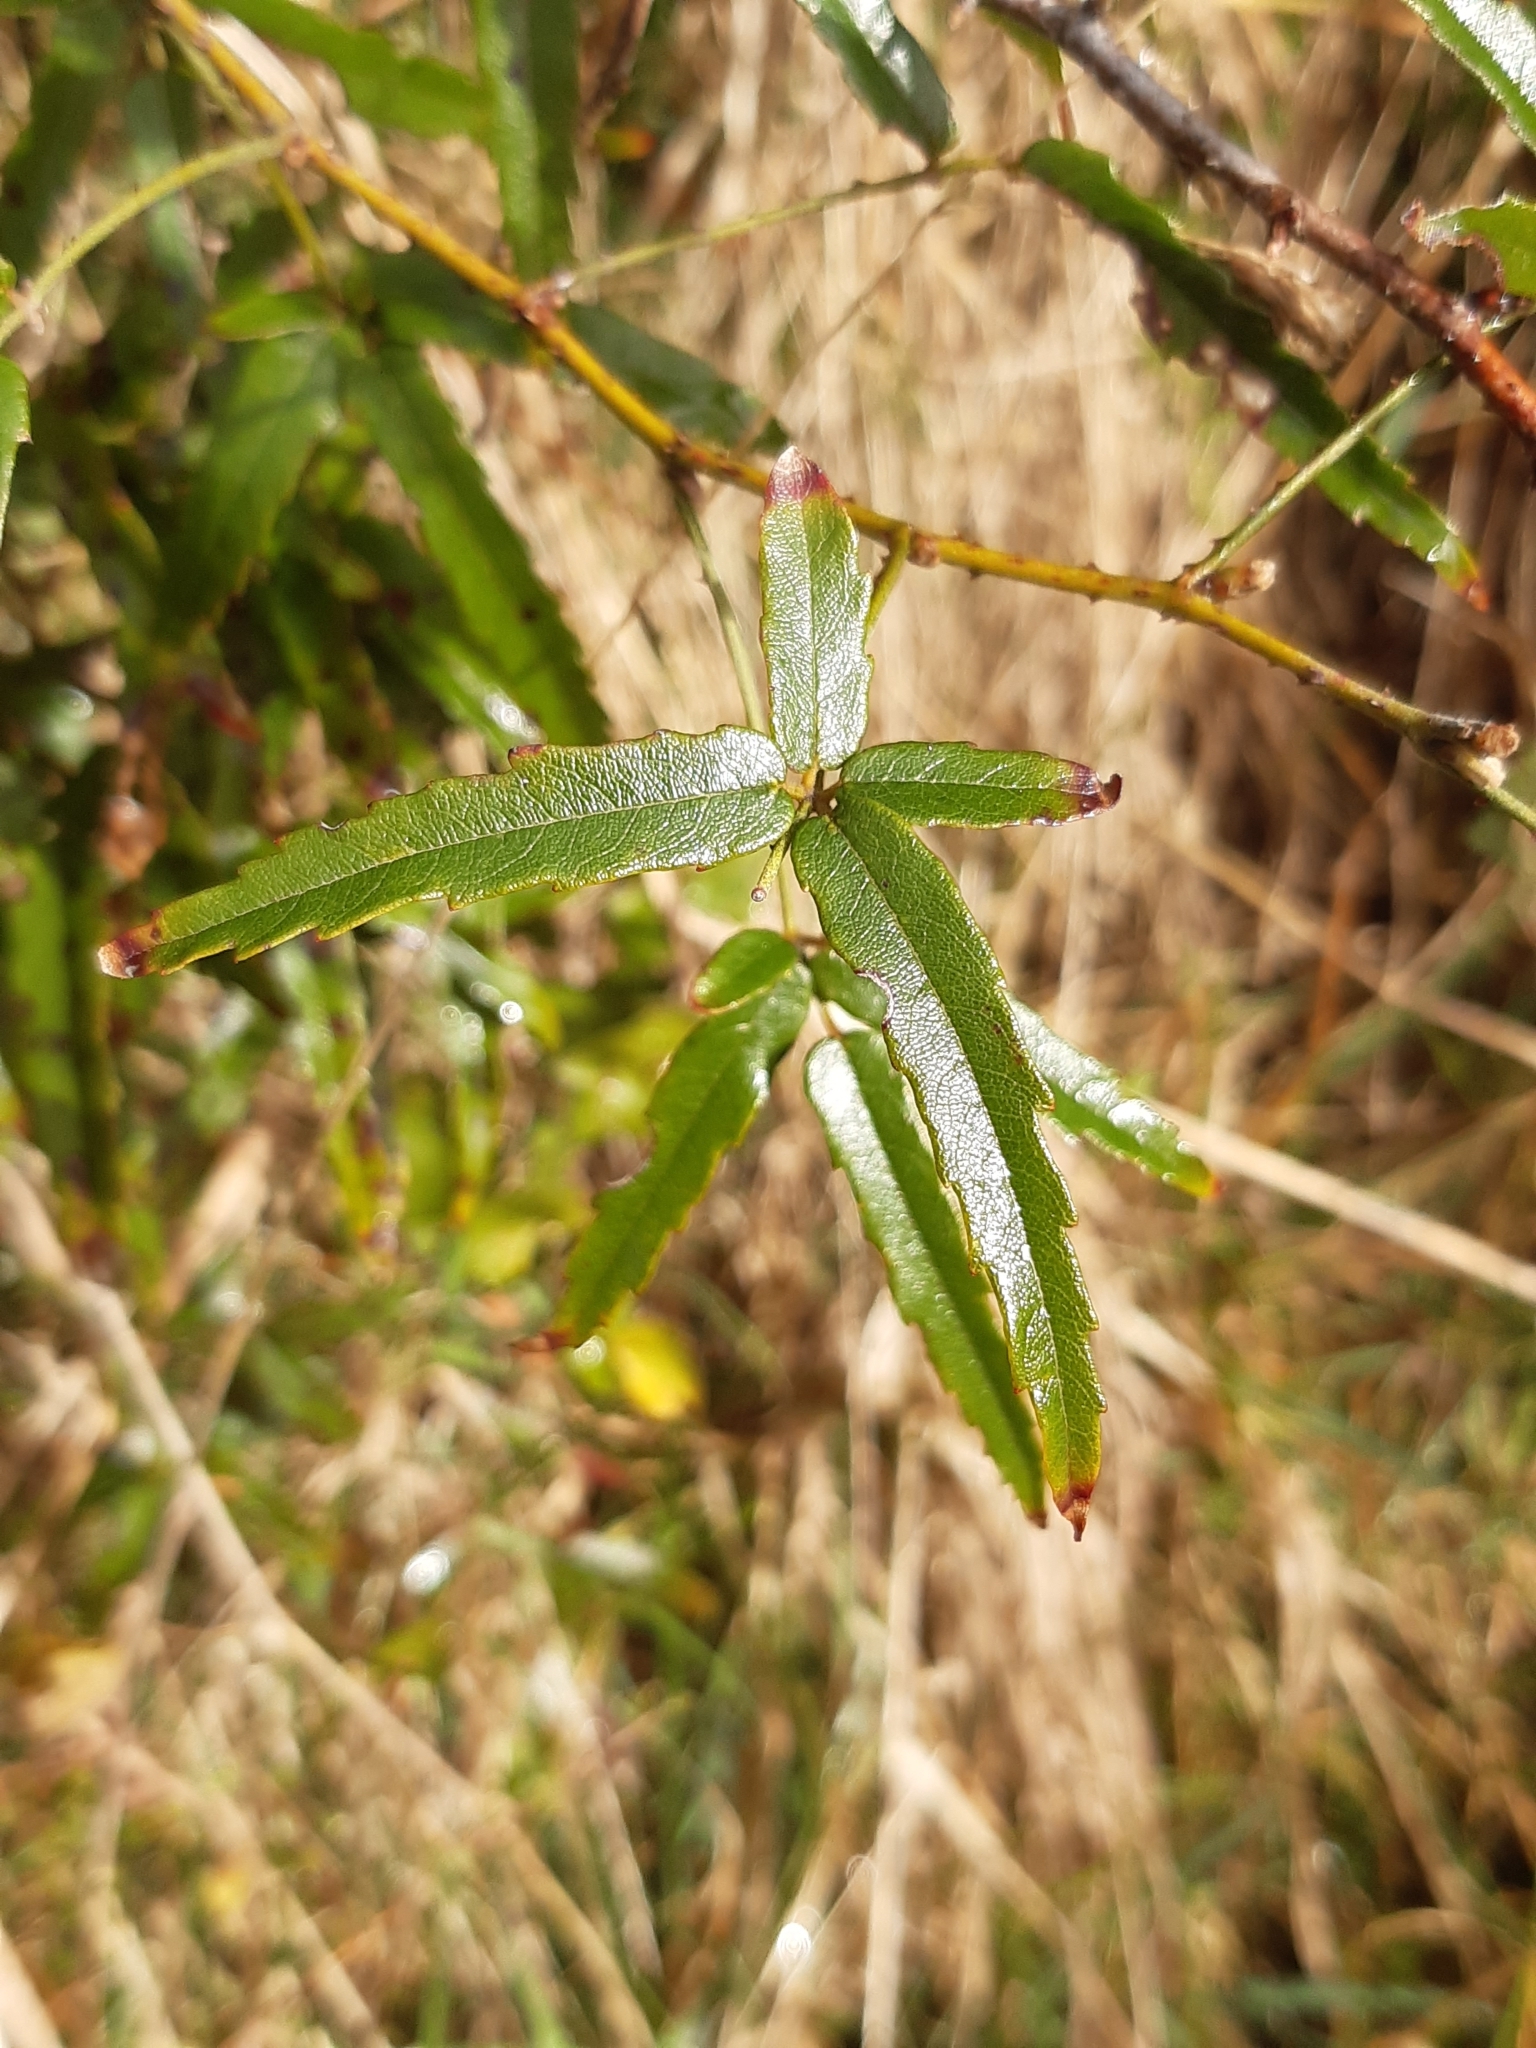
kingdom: Plantae
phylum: Tracheophyta
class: Magnoliopsida
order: Rosales
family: Rosaceae
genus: Rubus
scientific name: Rubus schmidelioides
